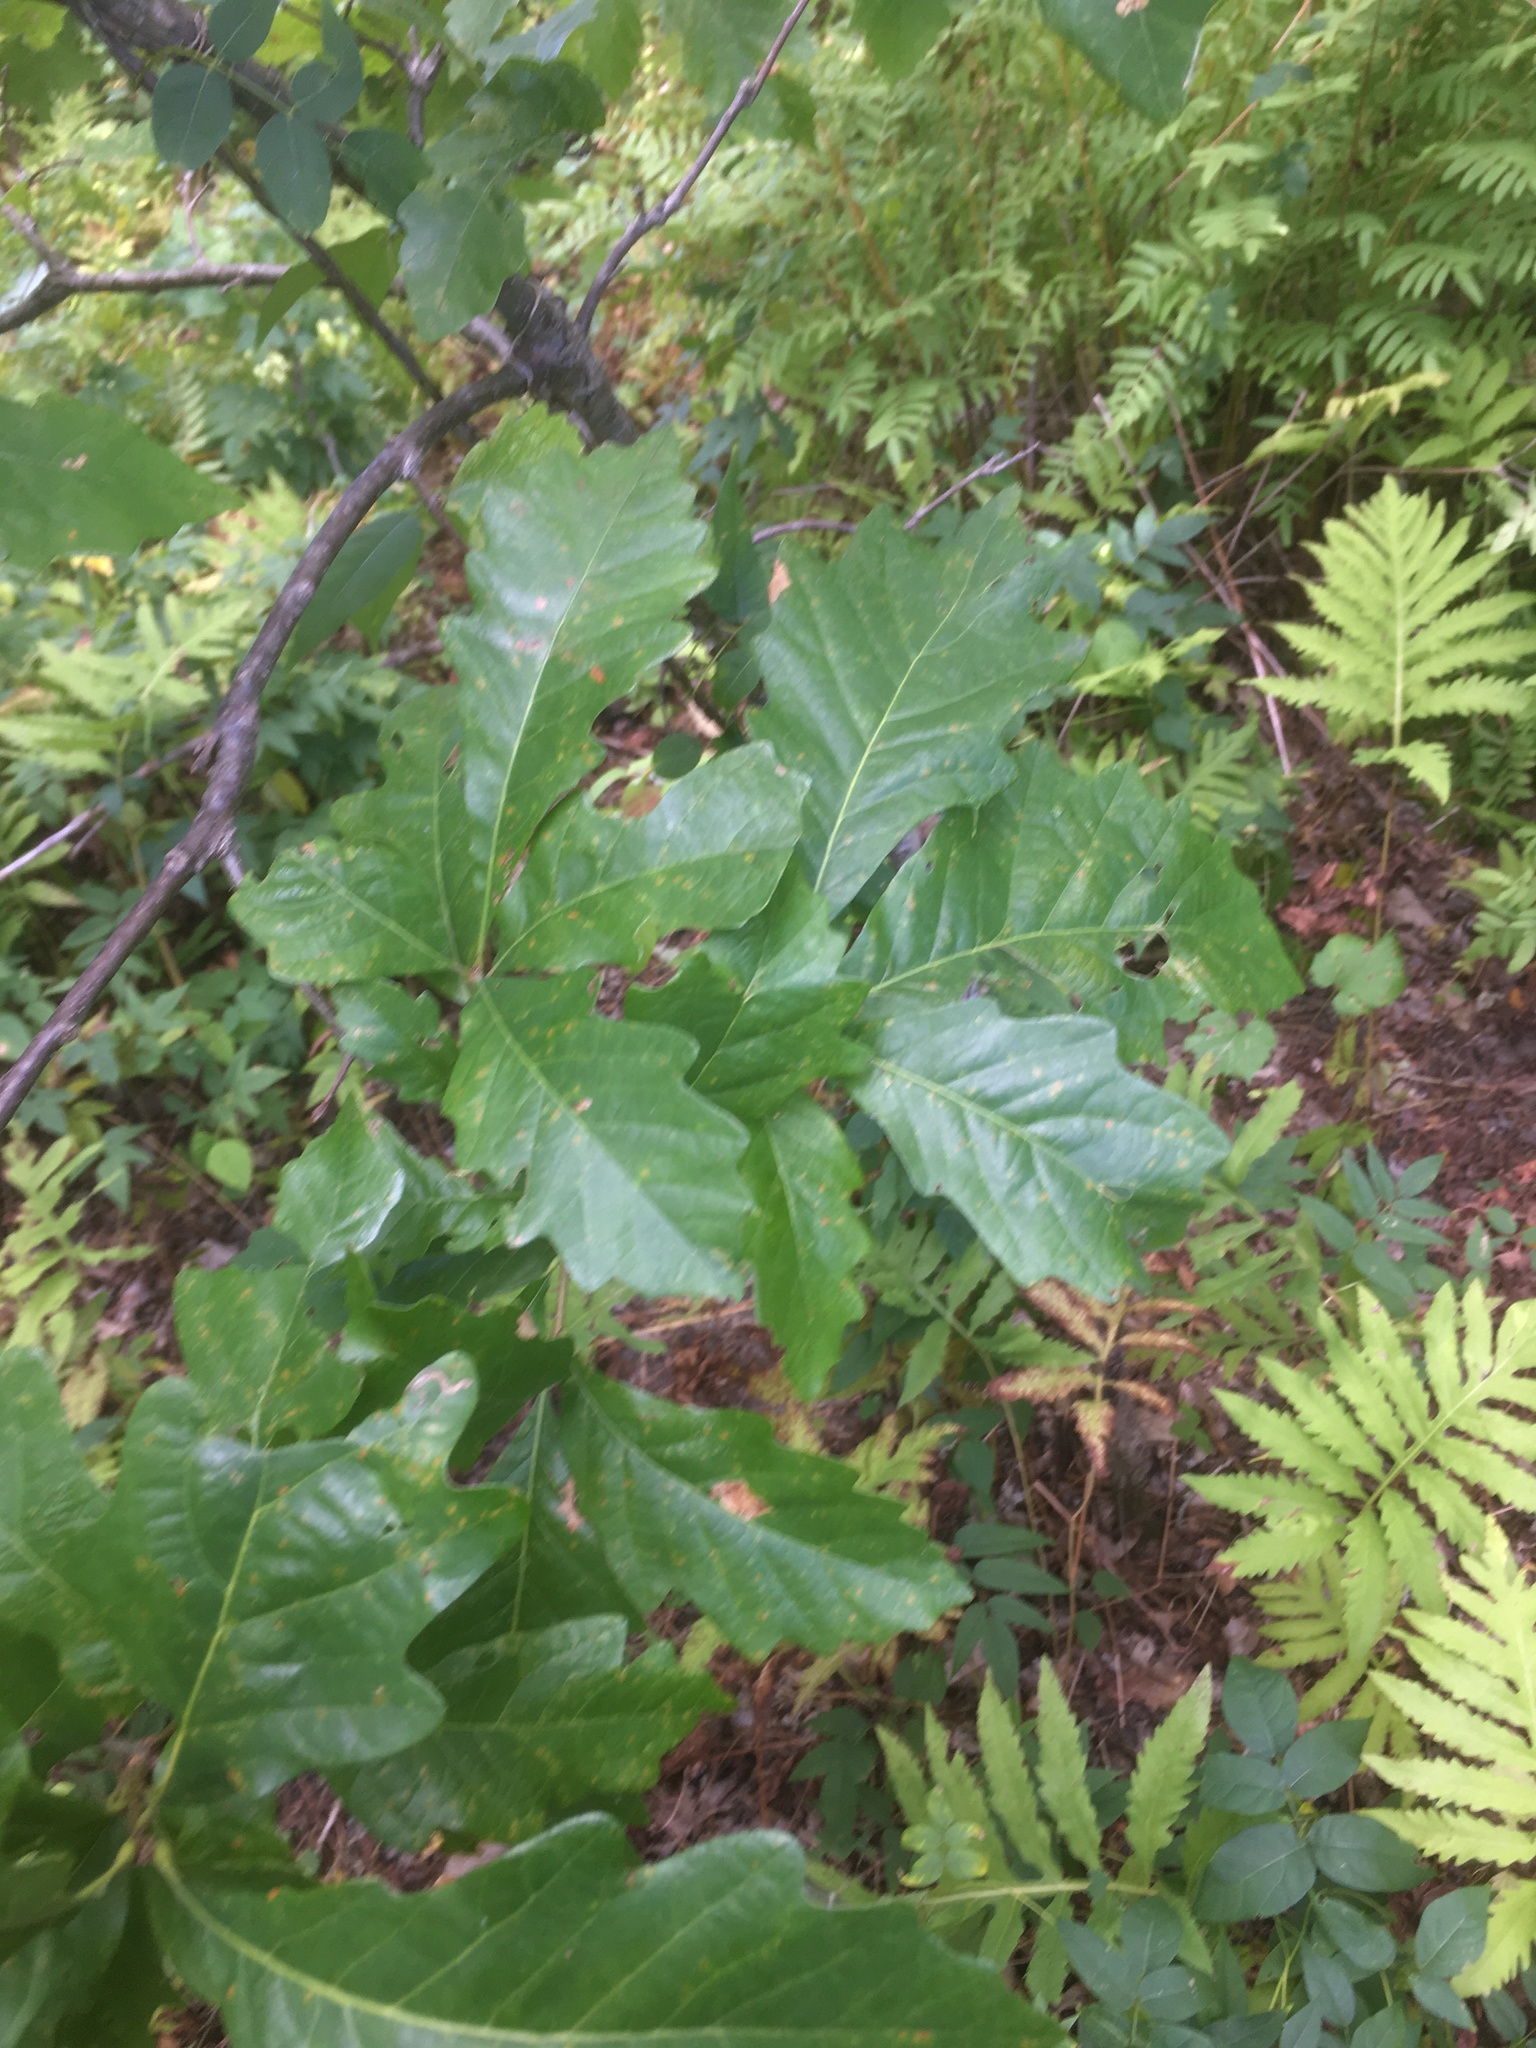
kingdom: Plantae
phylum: Tracheophyta
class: Magnoliopsida
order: Fagales
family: Fagaceae
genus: Quercus
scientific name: Quercus macrocarpa
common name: Bur oak
